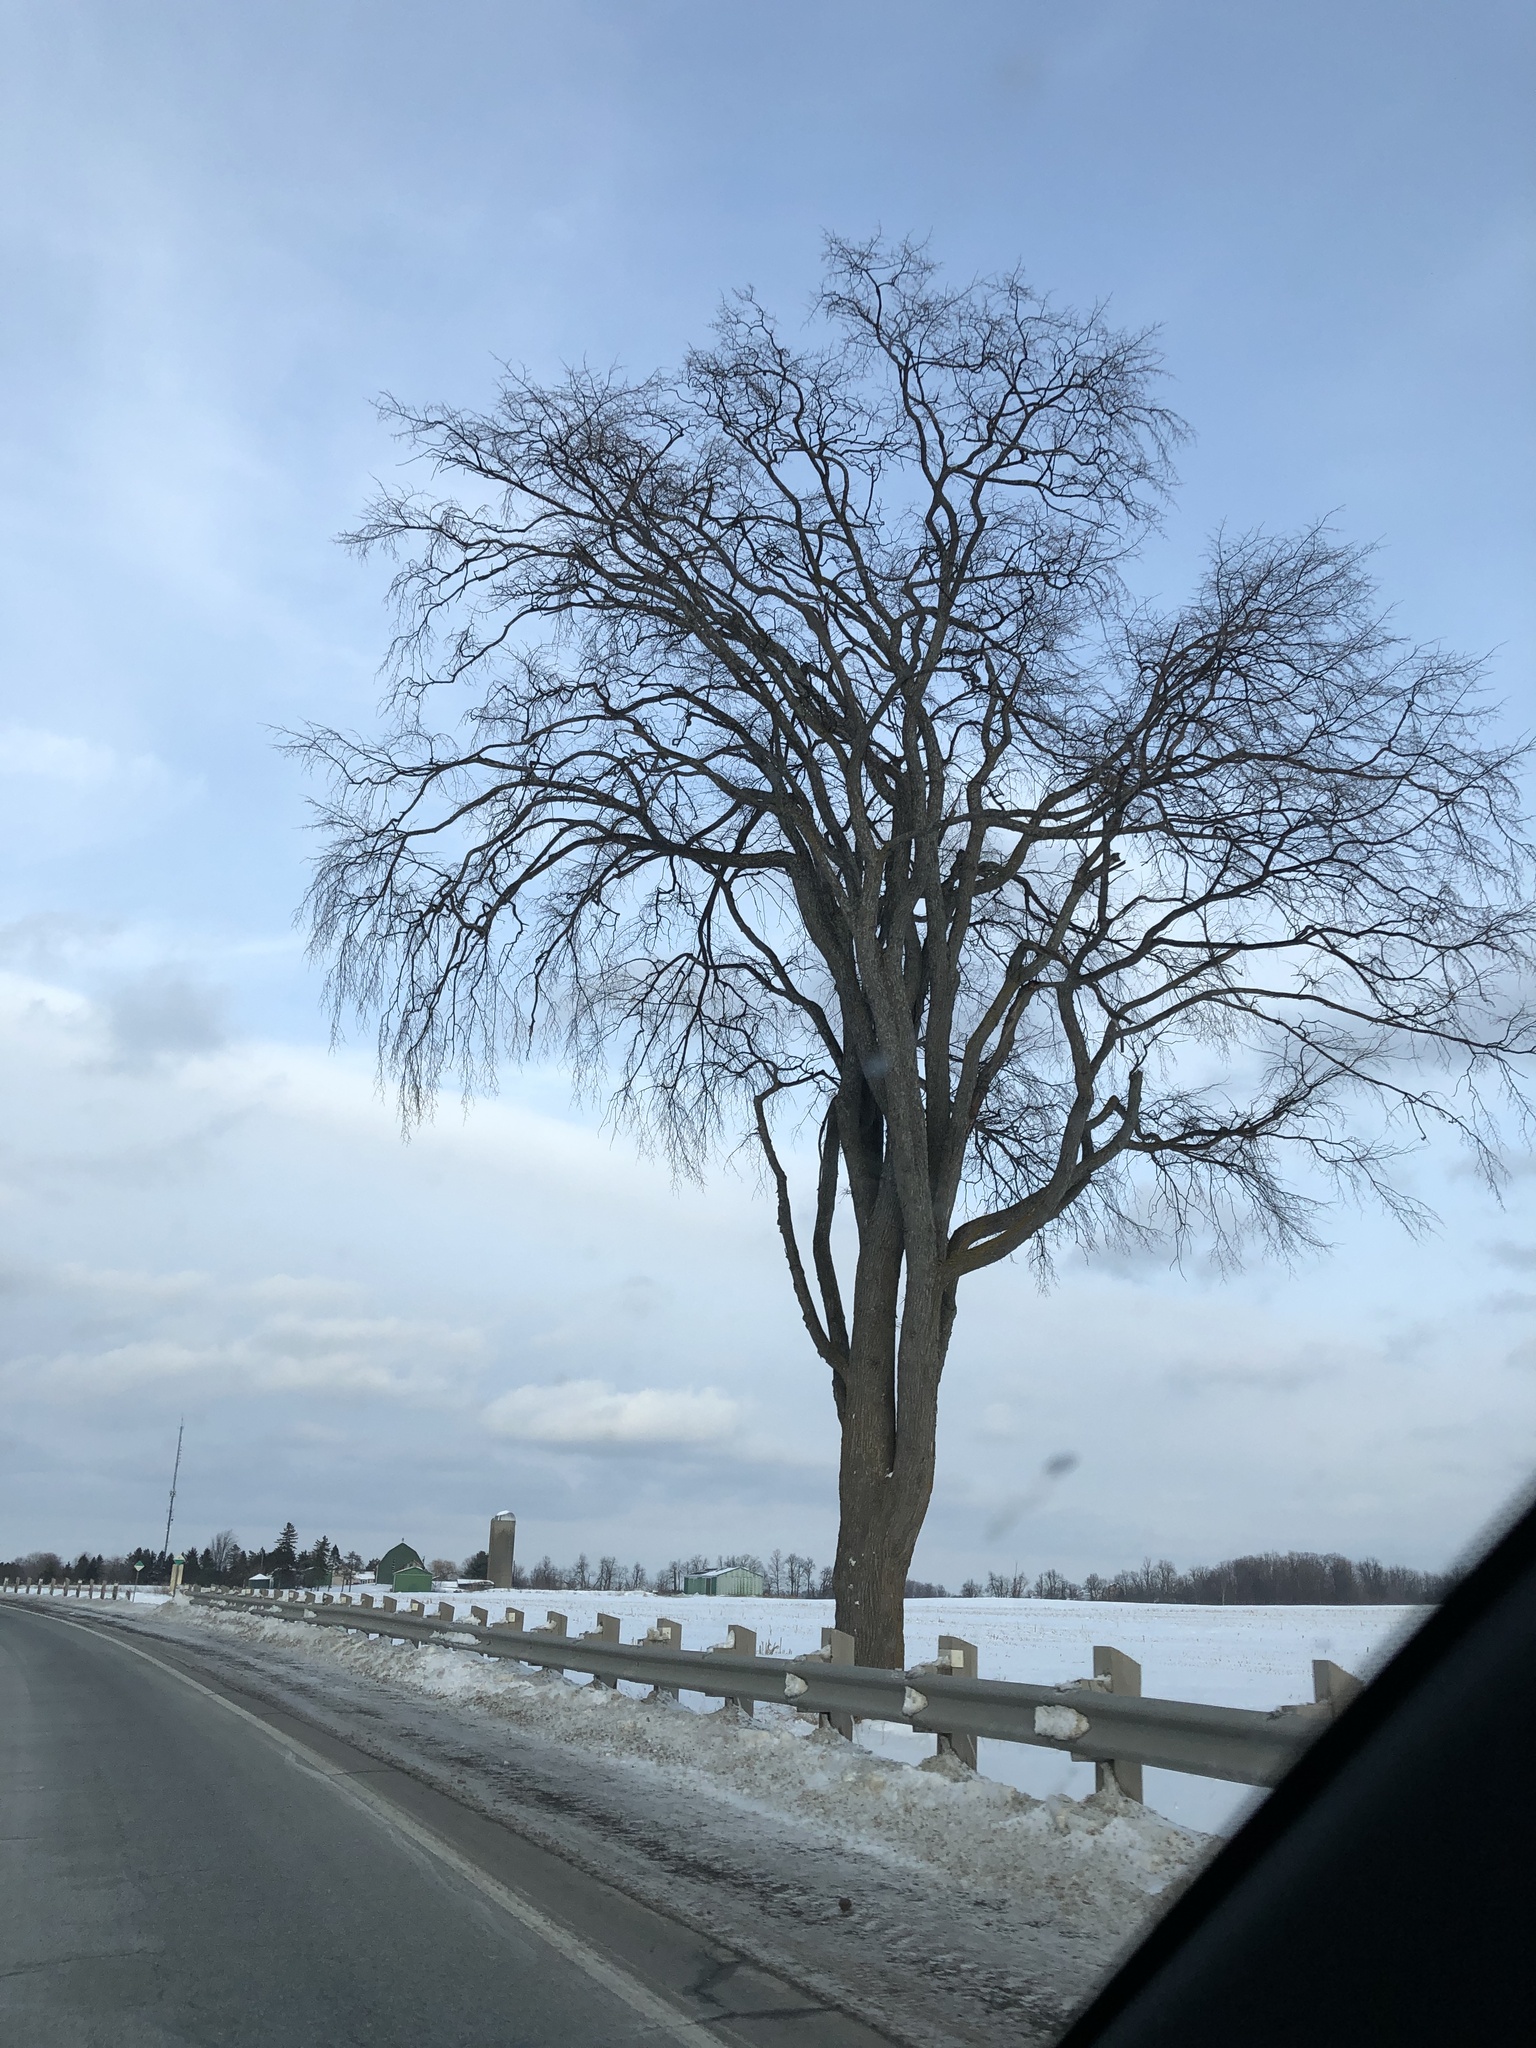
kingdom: Plantae
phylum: Tracheophyta
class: Magnoliopsida
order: Rosales
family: Ulmaceae
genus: Ulmus
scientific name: Ulmus americana
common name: American elm
